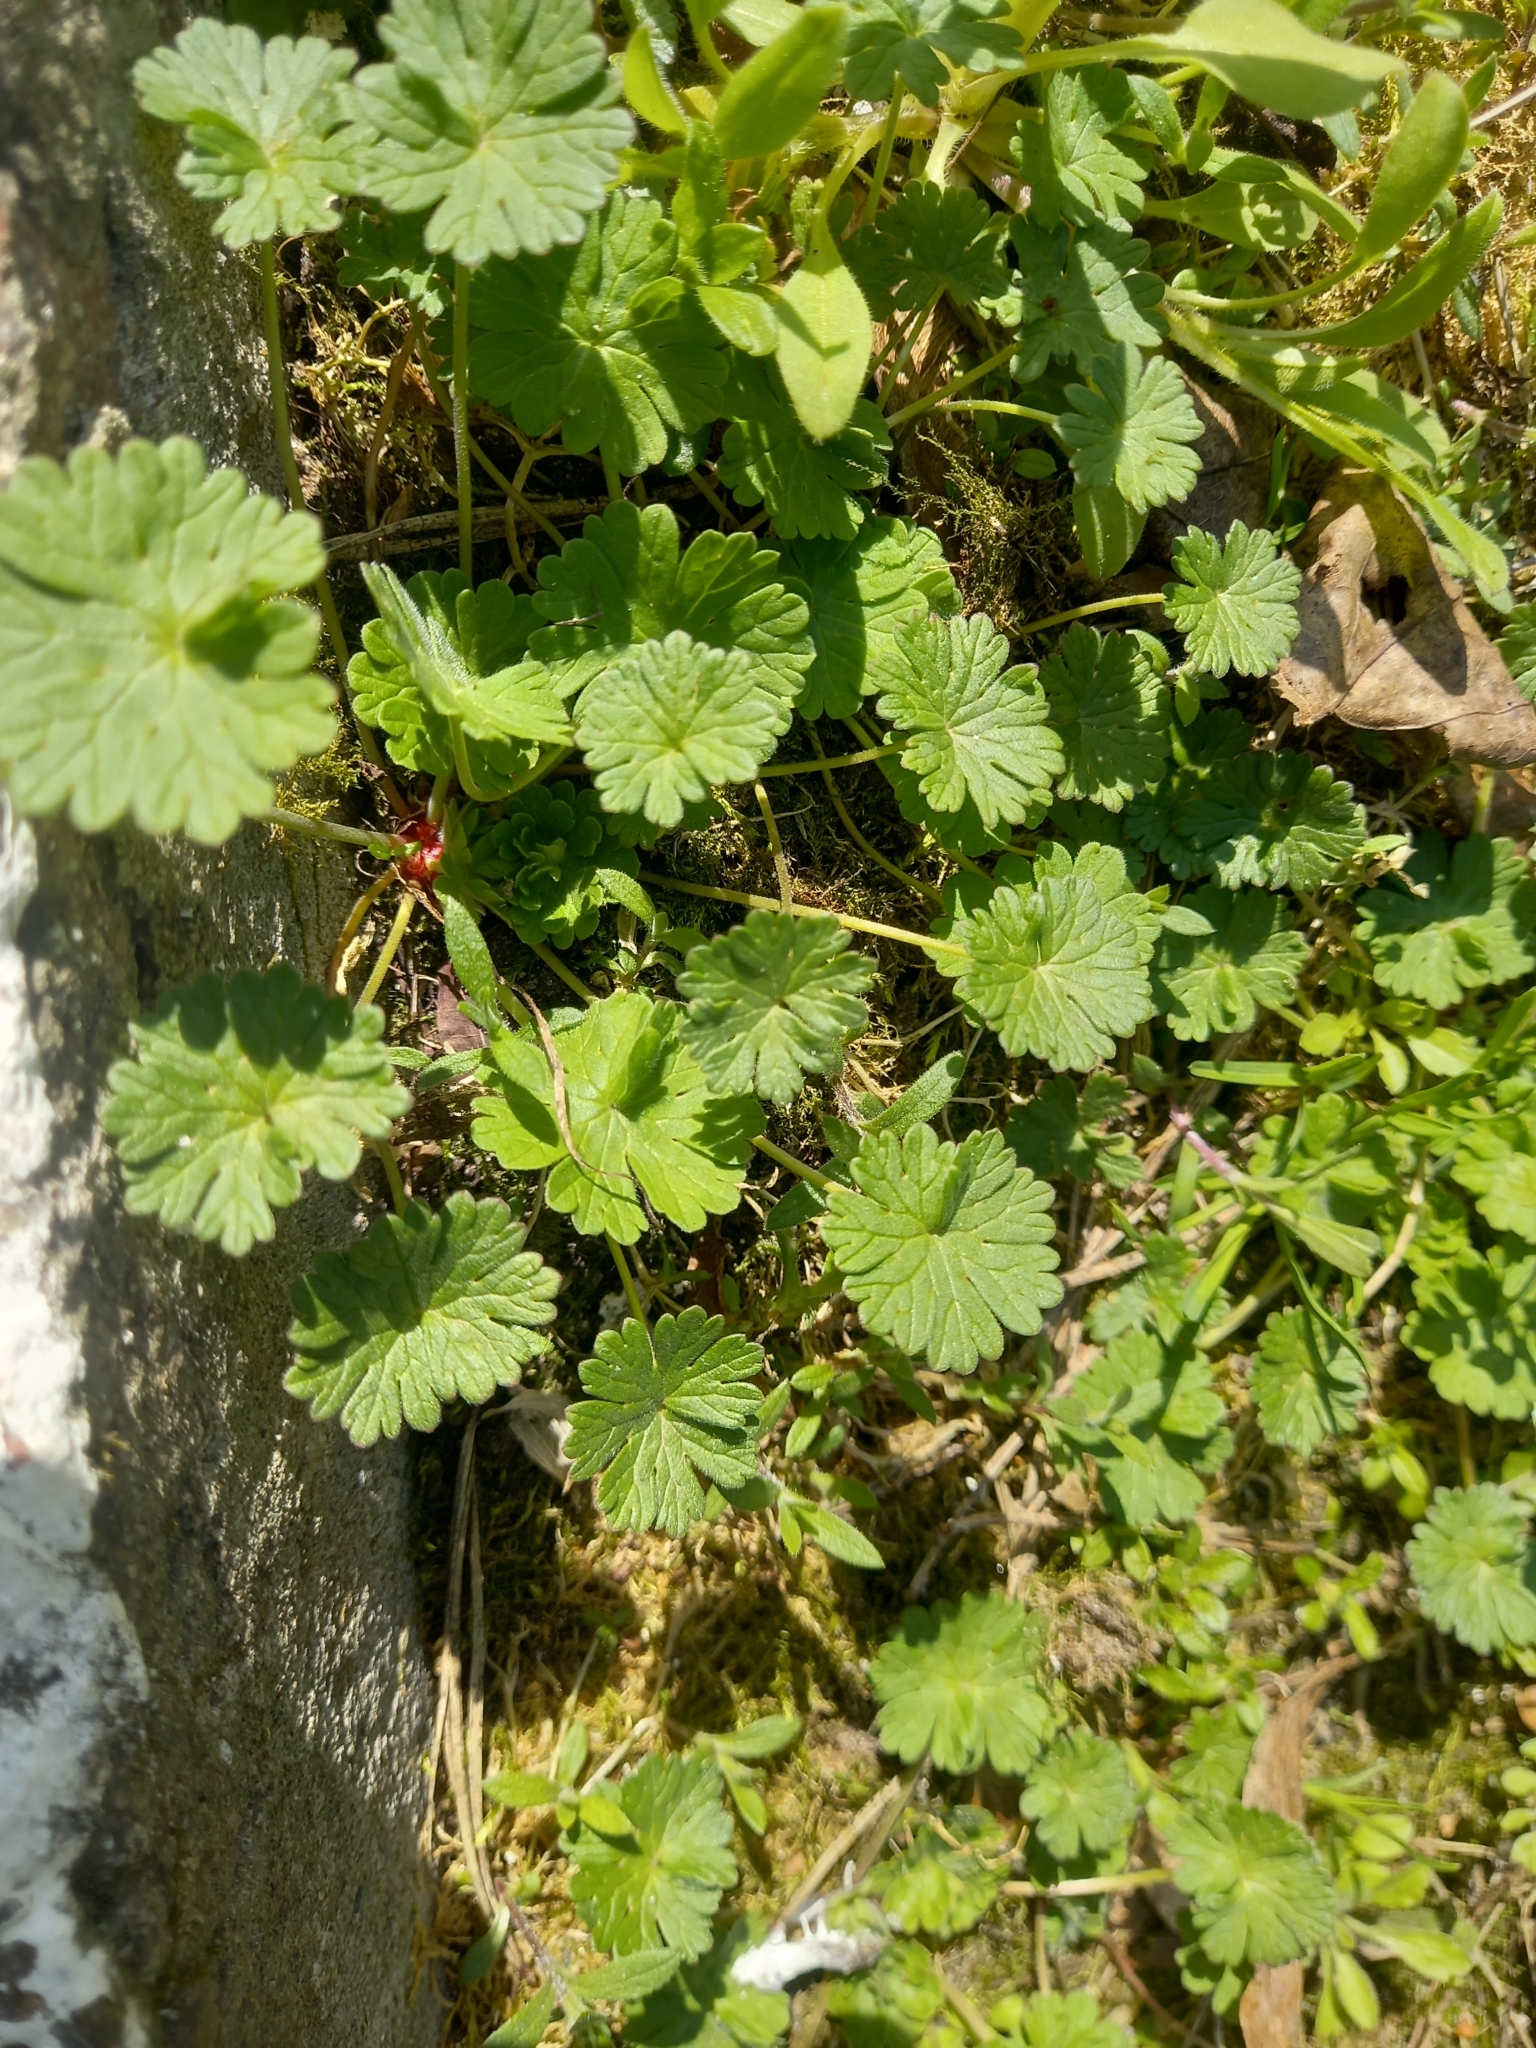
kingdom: Plantae
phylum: Tracheophyta
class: Magnoliopsida
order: Geraniales
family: Geraniaceae
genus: Geranium
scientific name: Geranium pusillum
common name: Small geranium
